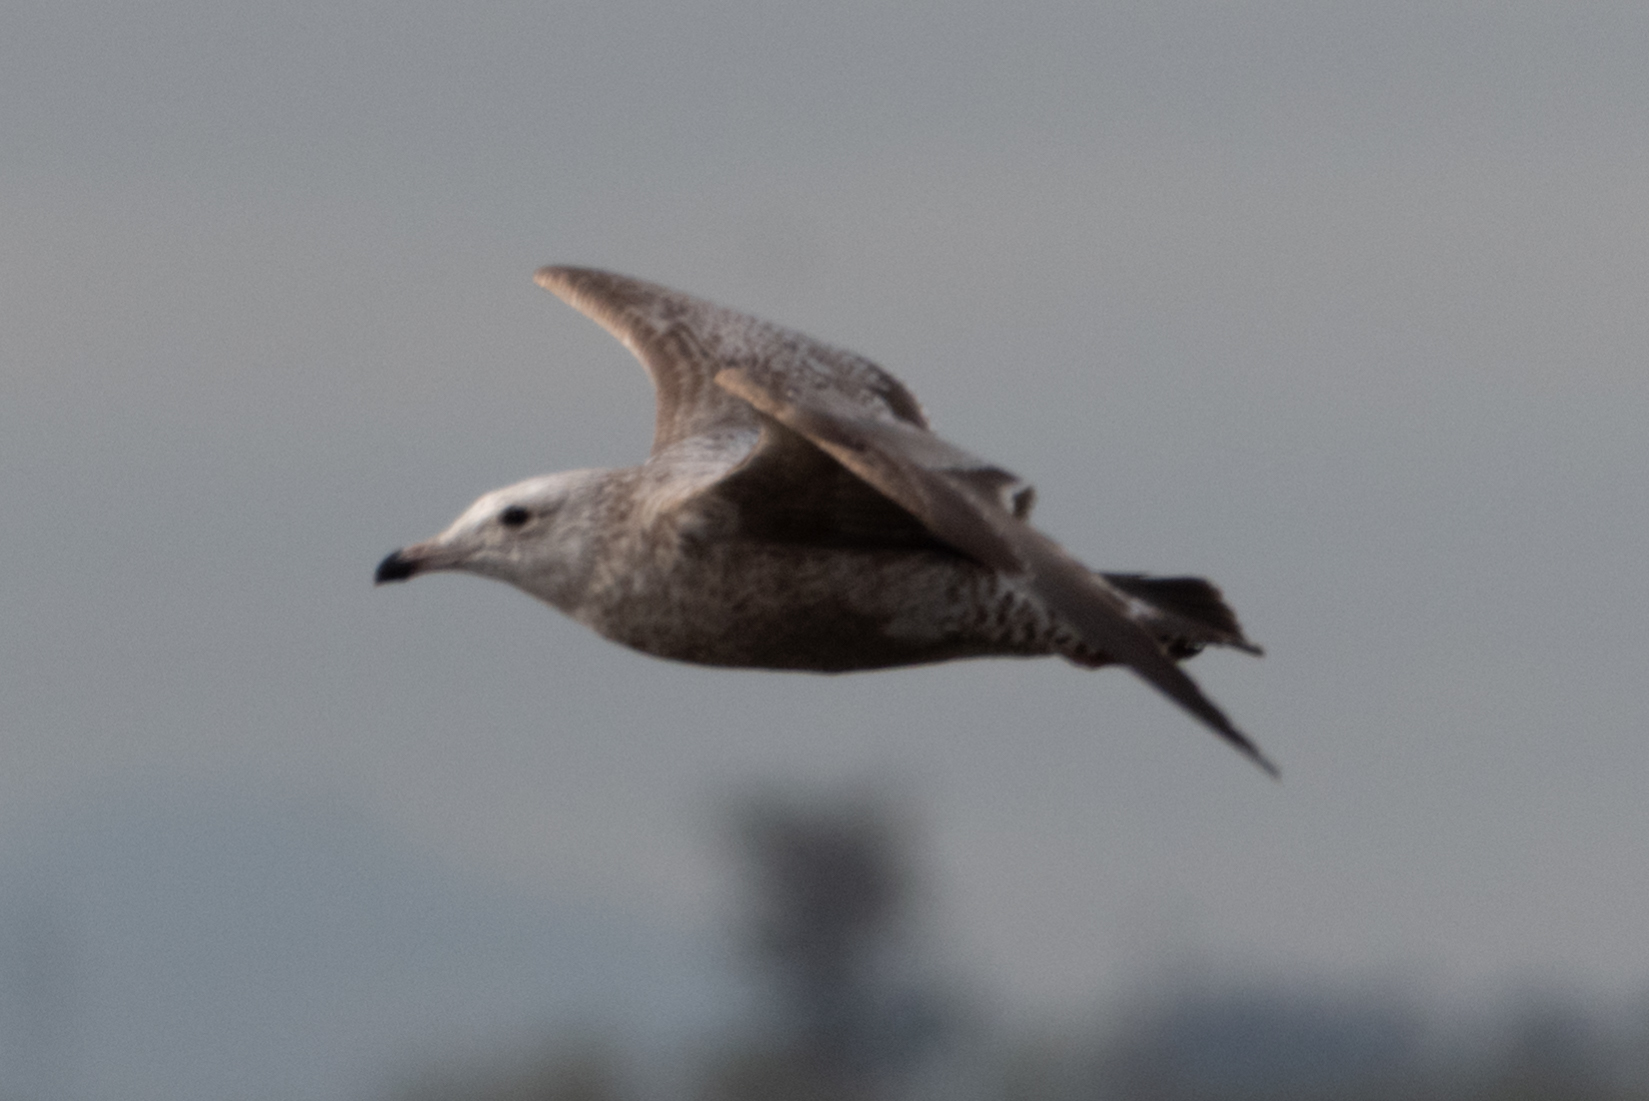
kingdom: Animalia
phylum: Chordata
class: Aves
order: Charadriiformes
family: Laridae
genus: Larus
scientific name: Larus argentatus
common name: Herring gull
